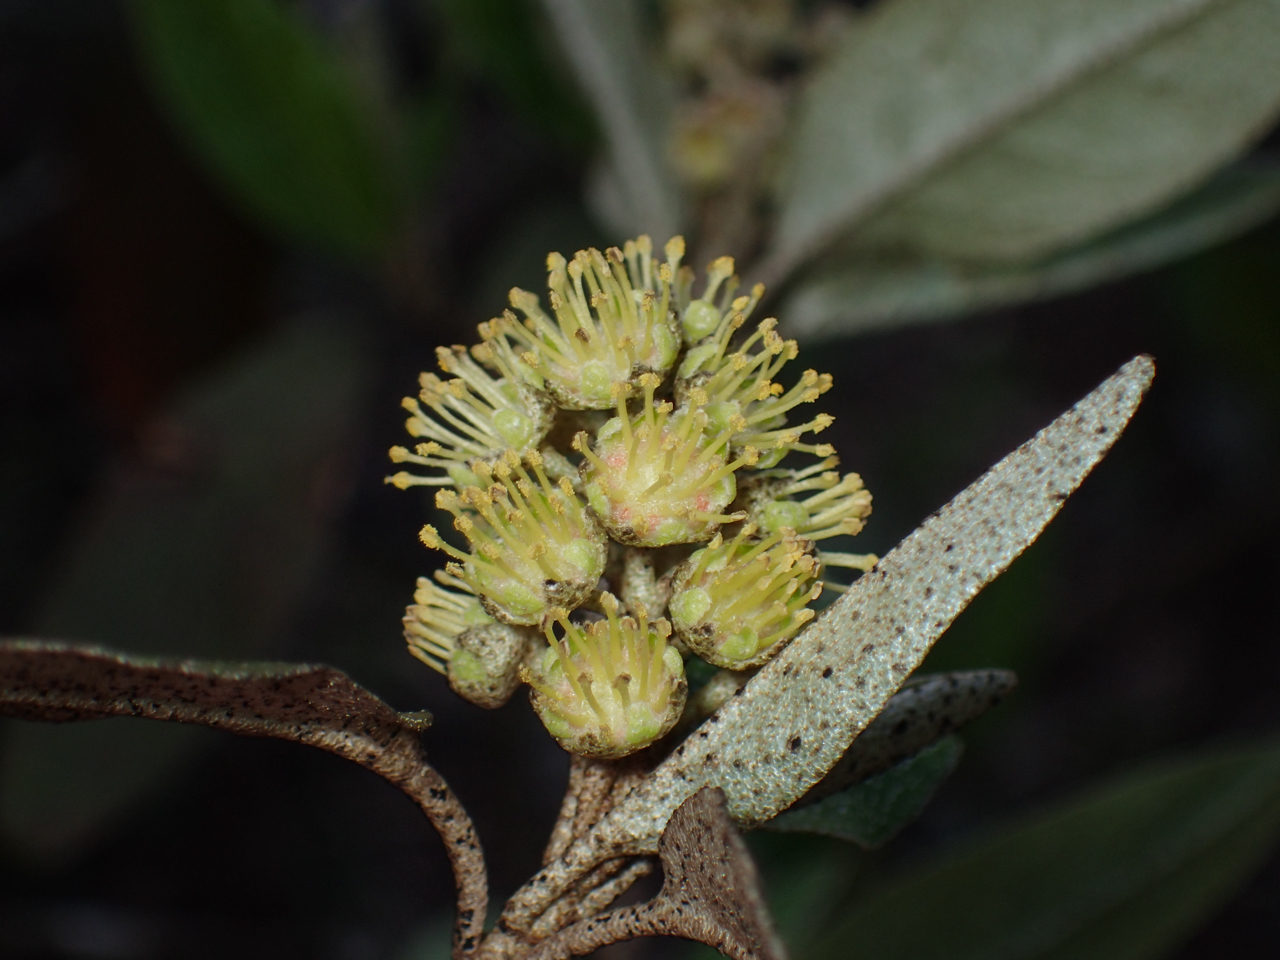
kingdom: Plantae
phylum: Tracheophyta
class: Magnoliopsida
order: Malpighiales
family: Euphorbiaceae
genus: Croton
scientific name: Croton alabamensis
